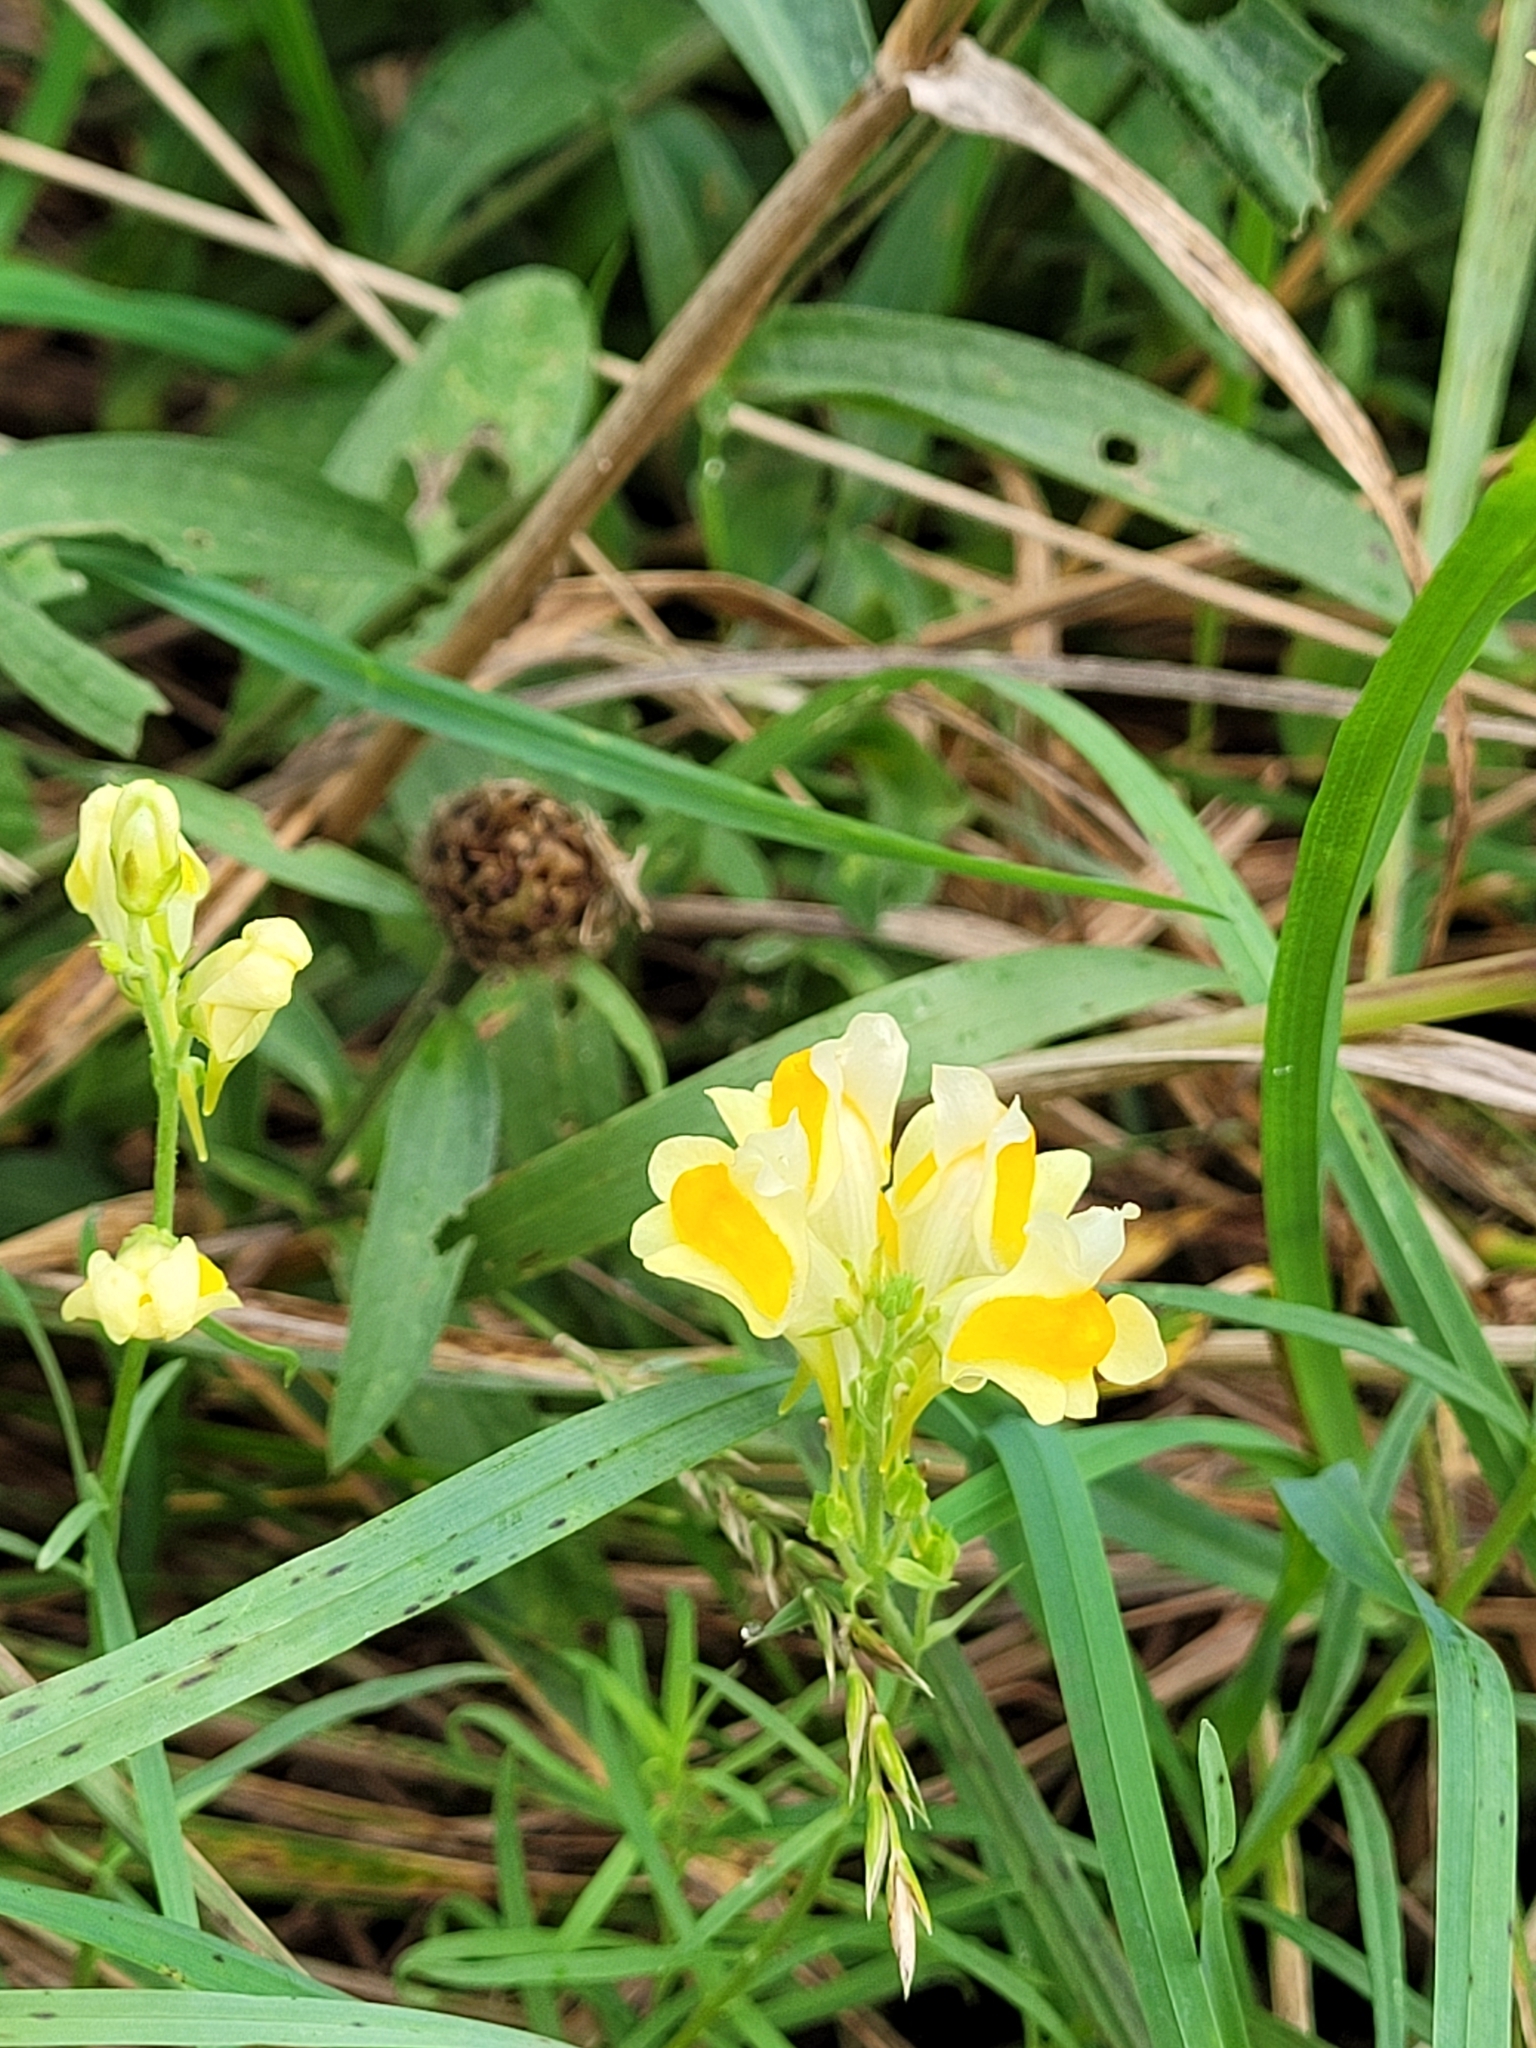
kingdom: Plantae
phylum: Tracheophyta
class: Magnoliopsida
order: Lamiales
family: Plantaginaceae
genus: Linaria
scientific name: Linaria vulgaris
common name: Butter and eggs
